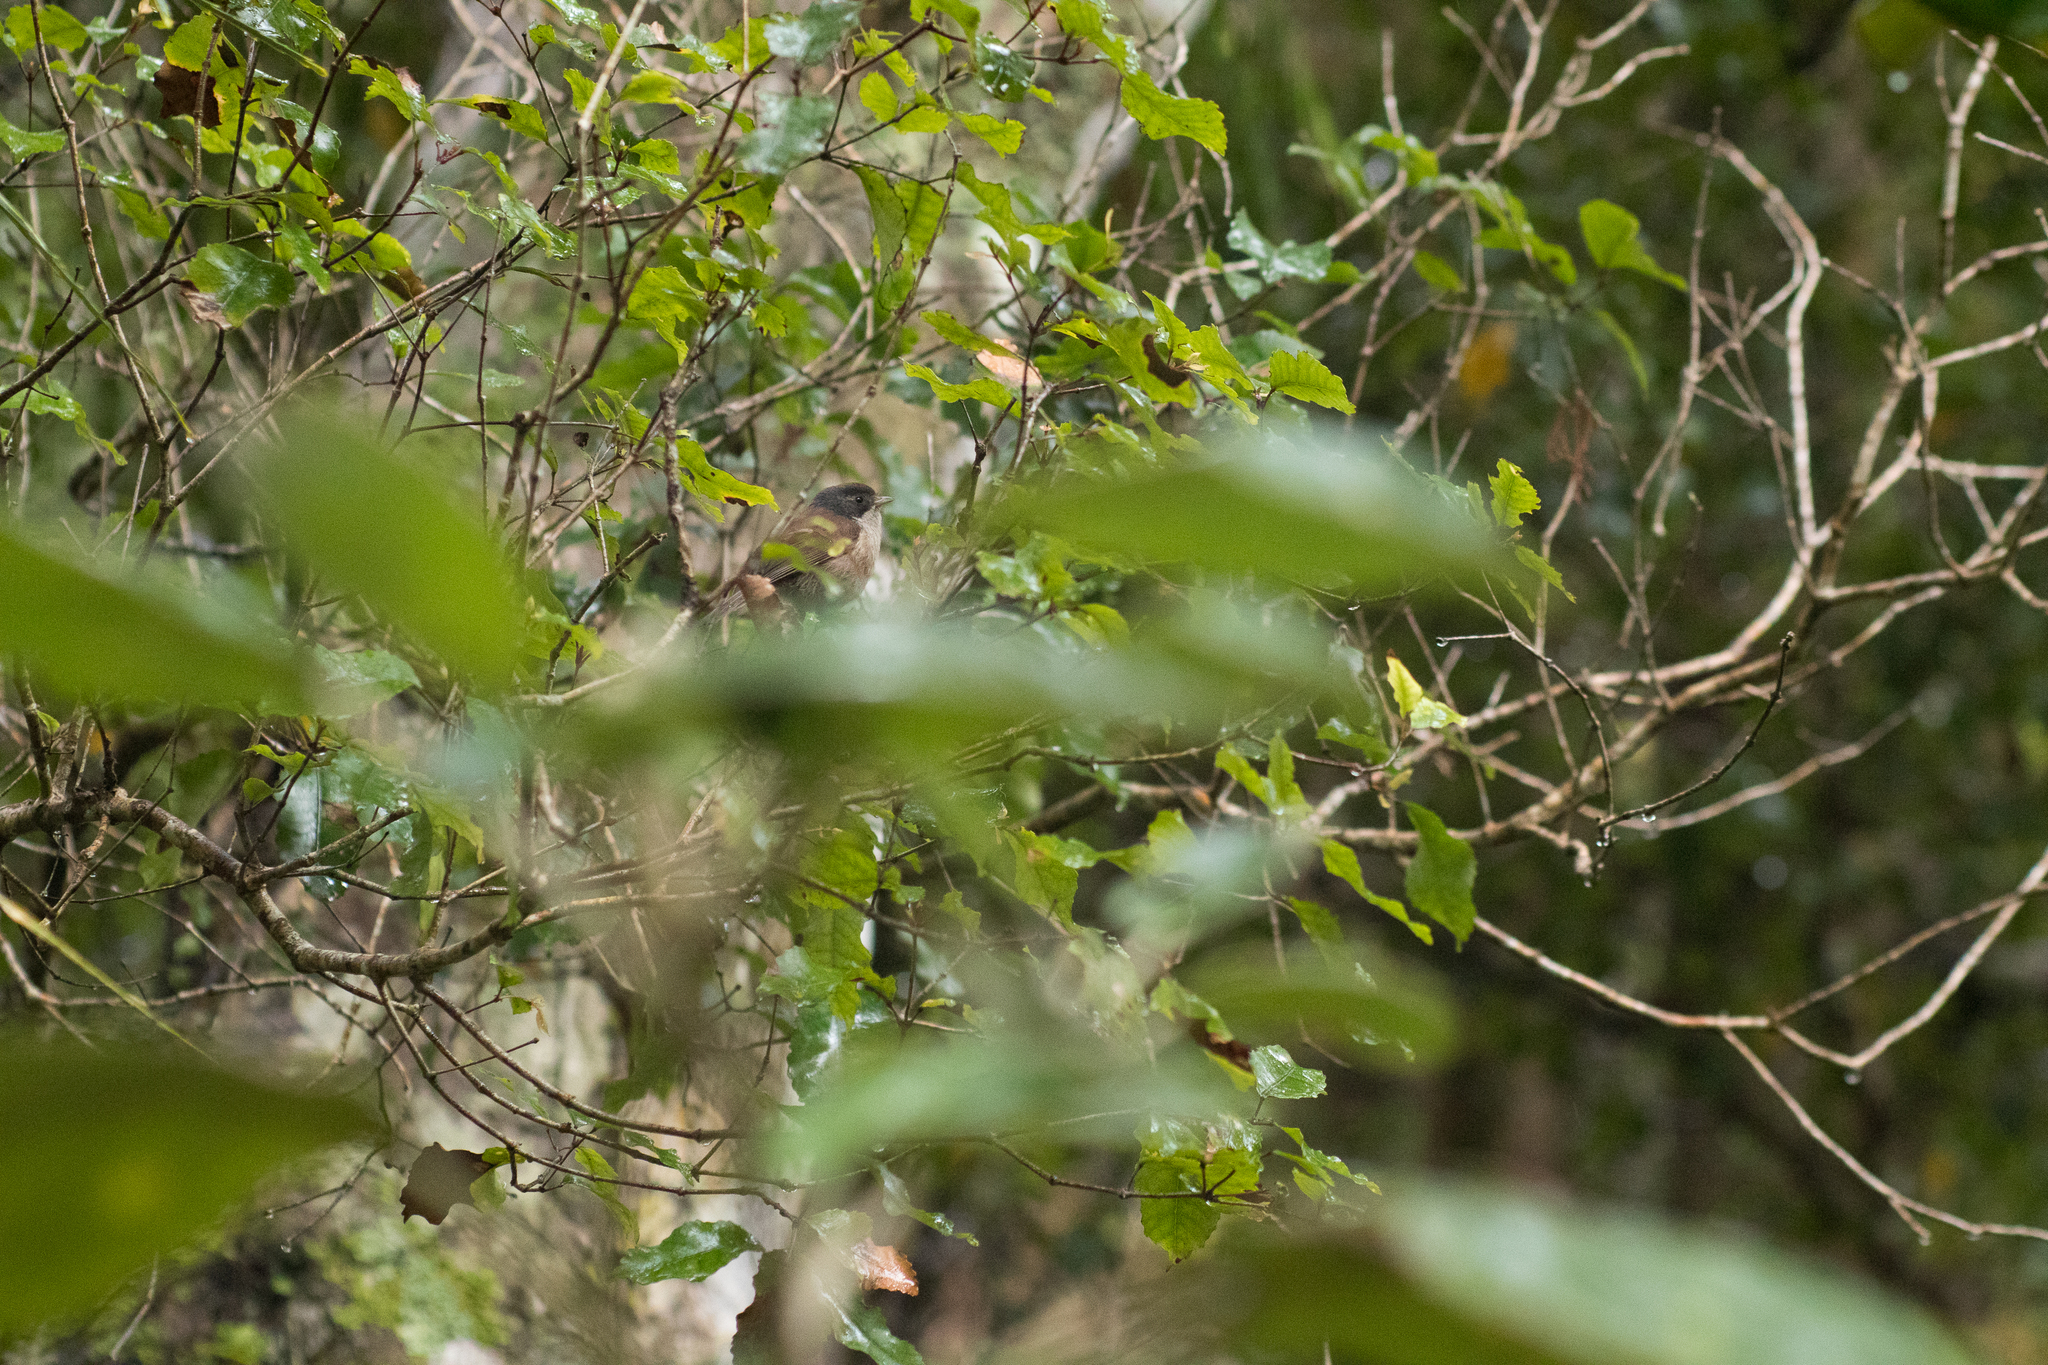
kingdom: Animalia
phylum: Chordata
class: Aves
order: Passeriformes
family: Acanthizidae
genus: Finschia
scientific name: Finschia novaeseelandiae
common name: Pipipi
